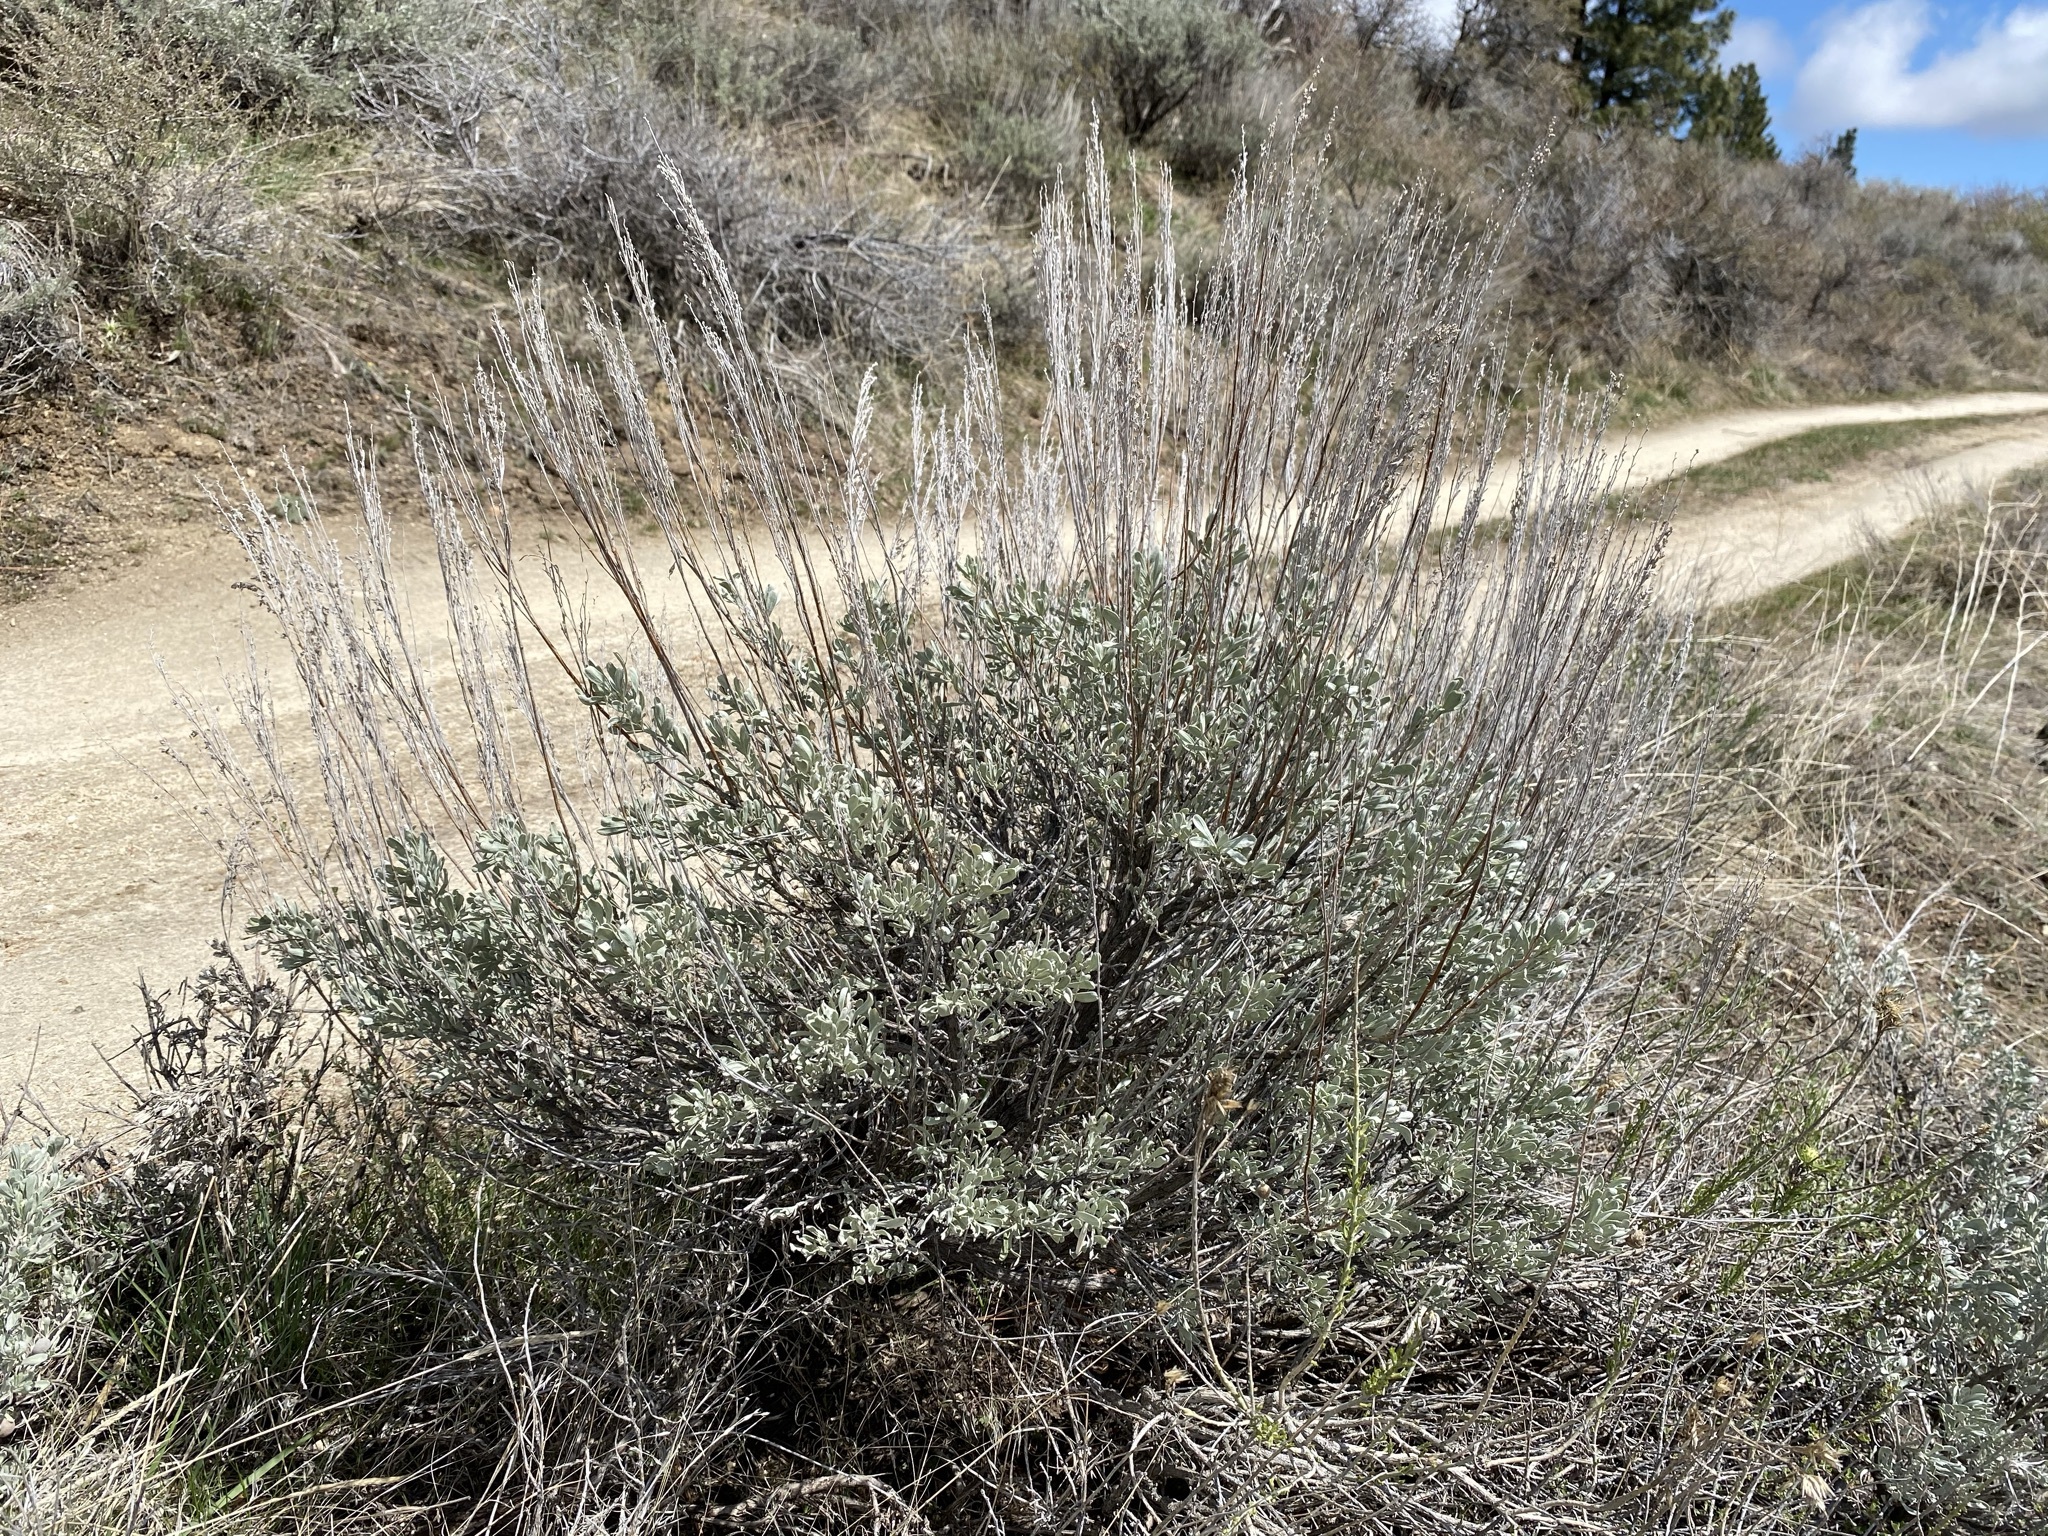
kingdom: Plantae
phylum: Tracheophyta
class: Magnoliopsida
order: Asterales
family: Asteraceae
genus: Artemisia
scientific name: Artemisia tridentata
